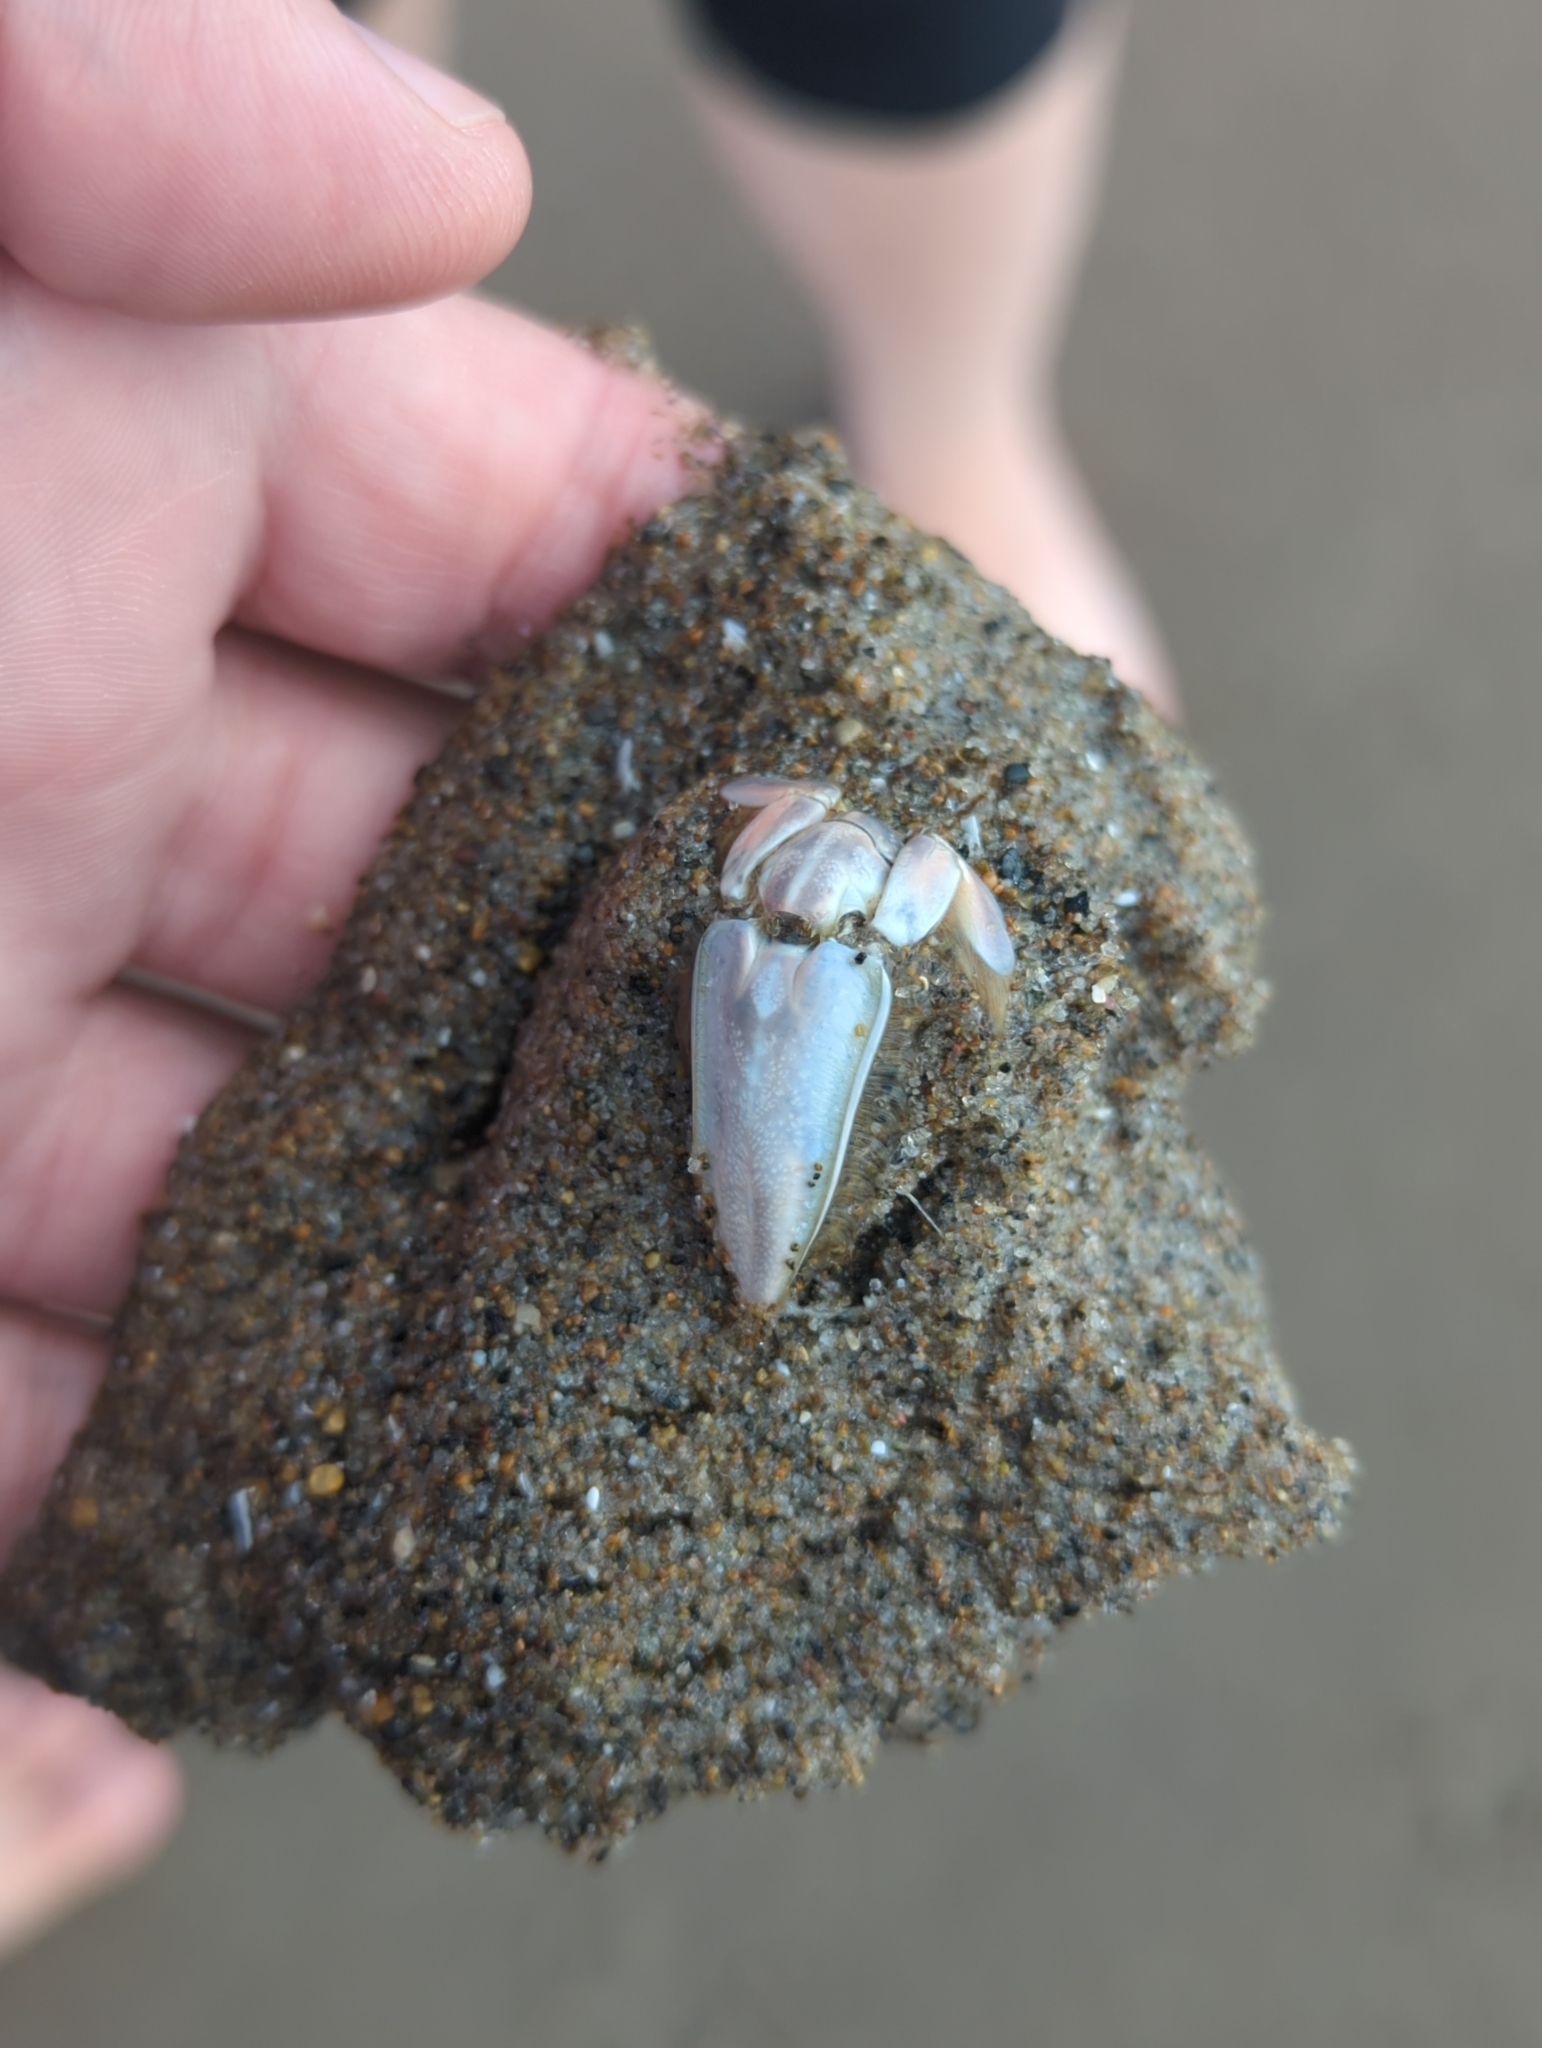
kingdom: Animalia
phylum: Arthropoda
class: Malacostraca
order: Decapoda
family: Hippidae
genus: Emerita
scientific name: Emerita analoga
